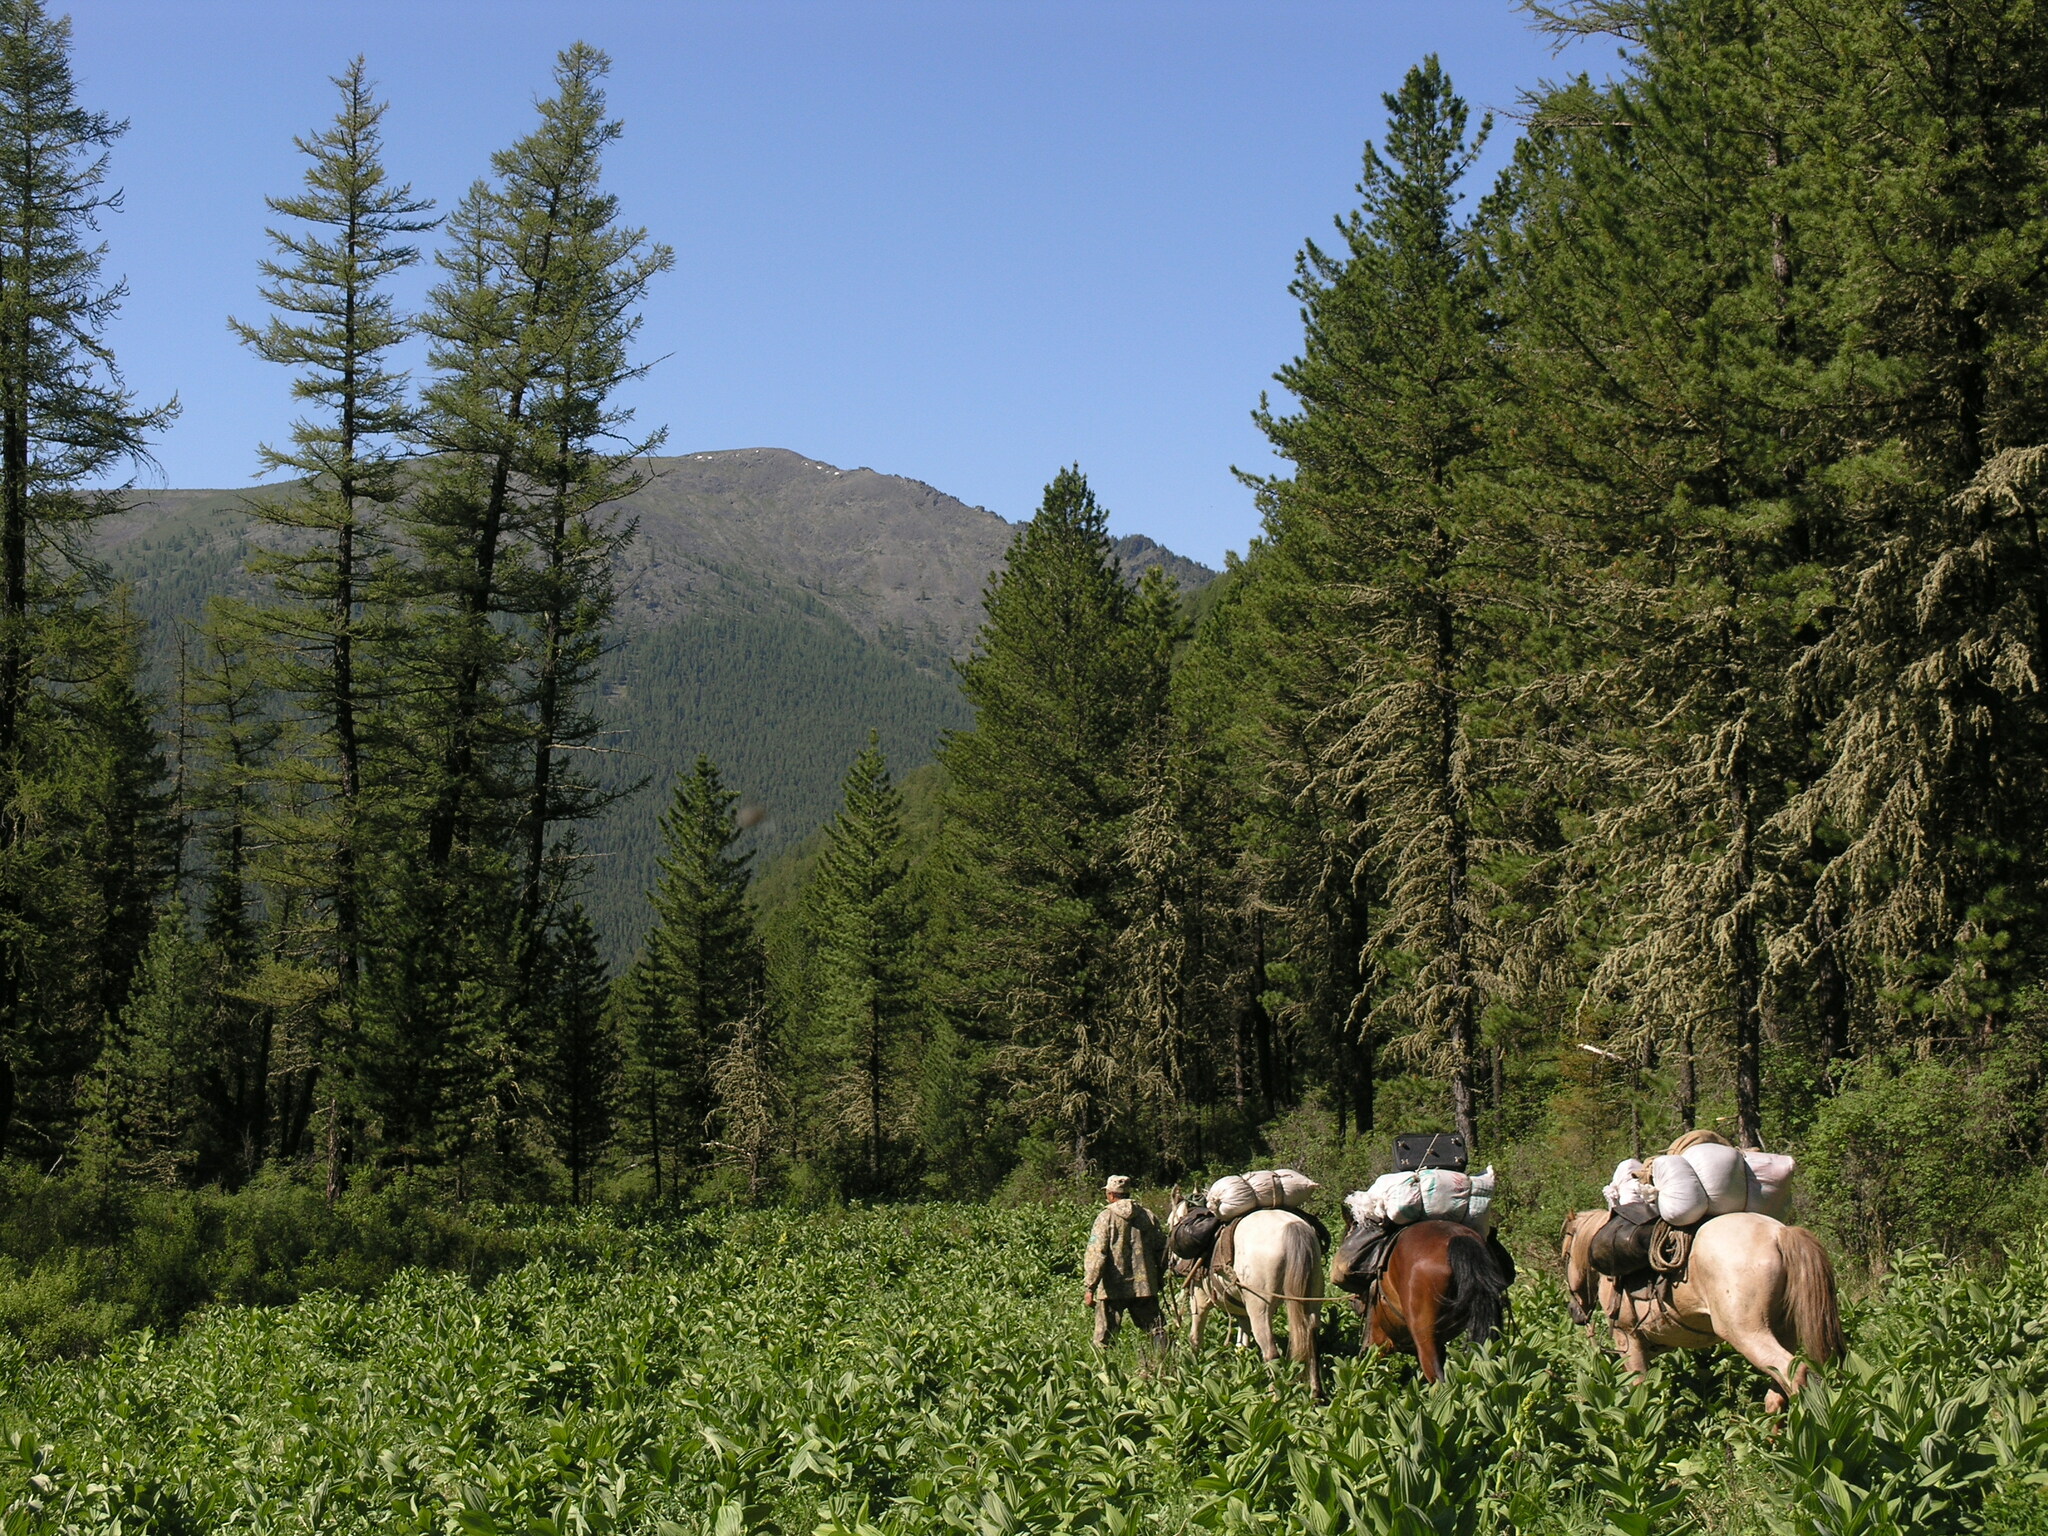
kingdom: Plantae
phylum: Tracheophyta
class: Pinopsida
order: Pinales
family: Pinaceae
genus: Pinus
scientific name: Pinus sibirica
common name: Siberian pine
